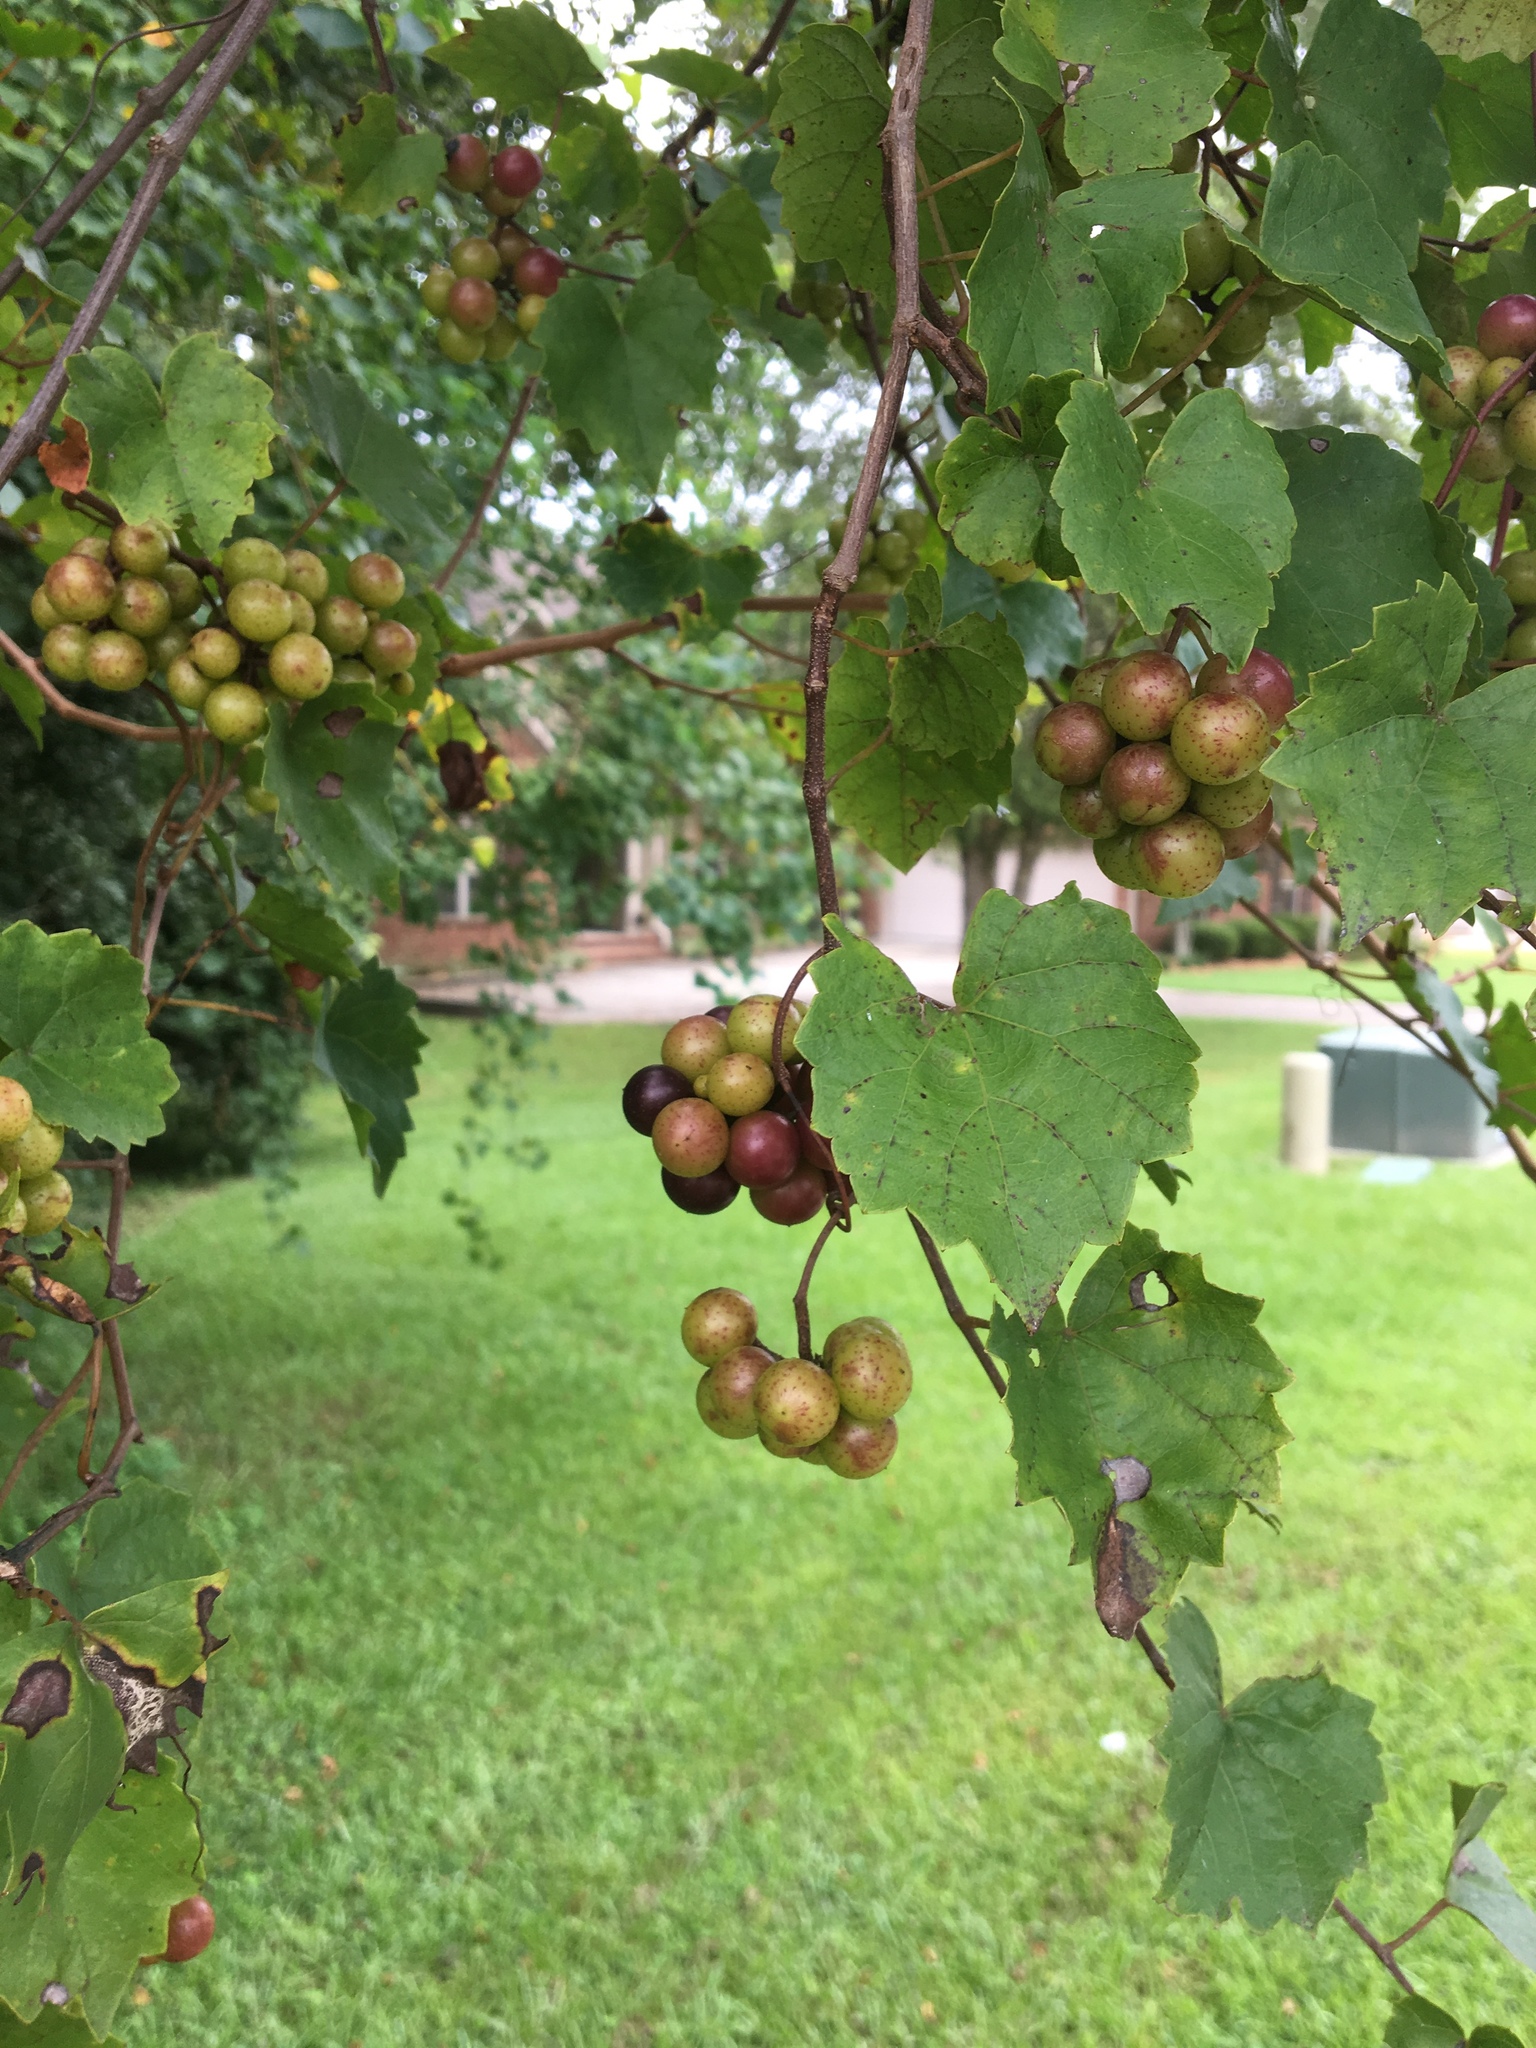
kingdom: Plantae
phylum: Tracheophyta
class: Magnoliopsida
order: Vitales
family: Vitaceae
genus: Vitis
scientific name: Vitis rotundifolia
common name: Muscadine grape
